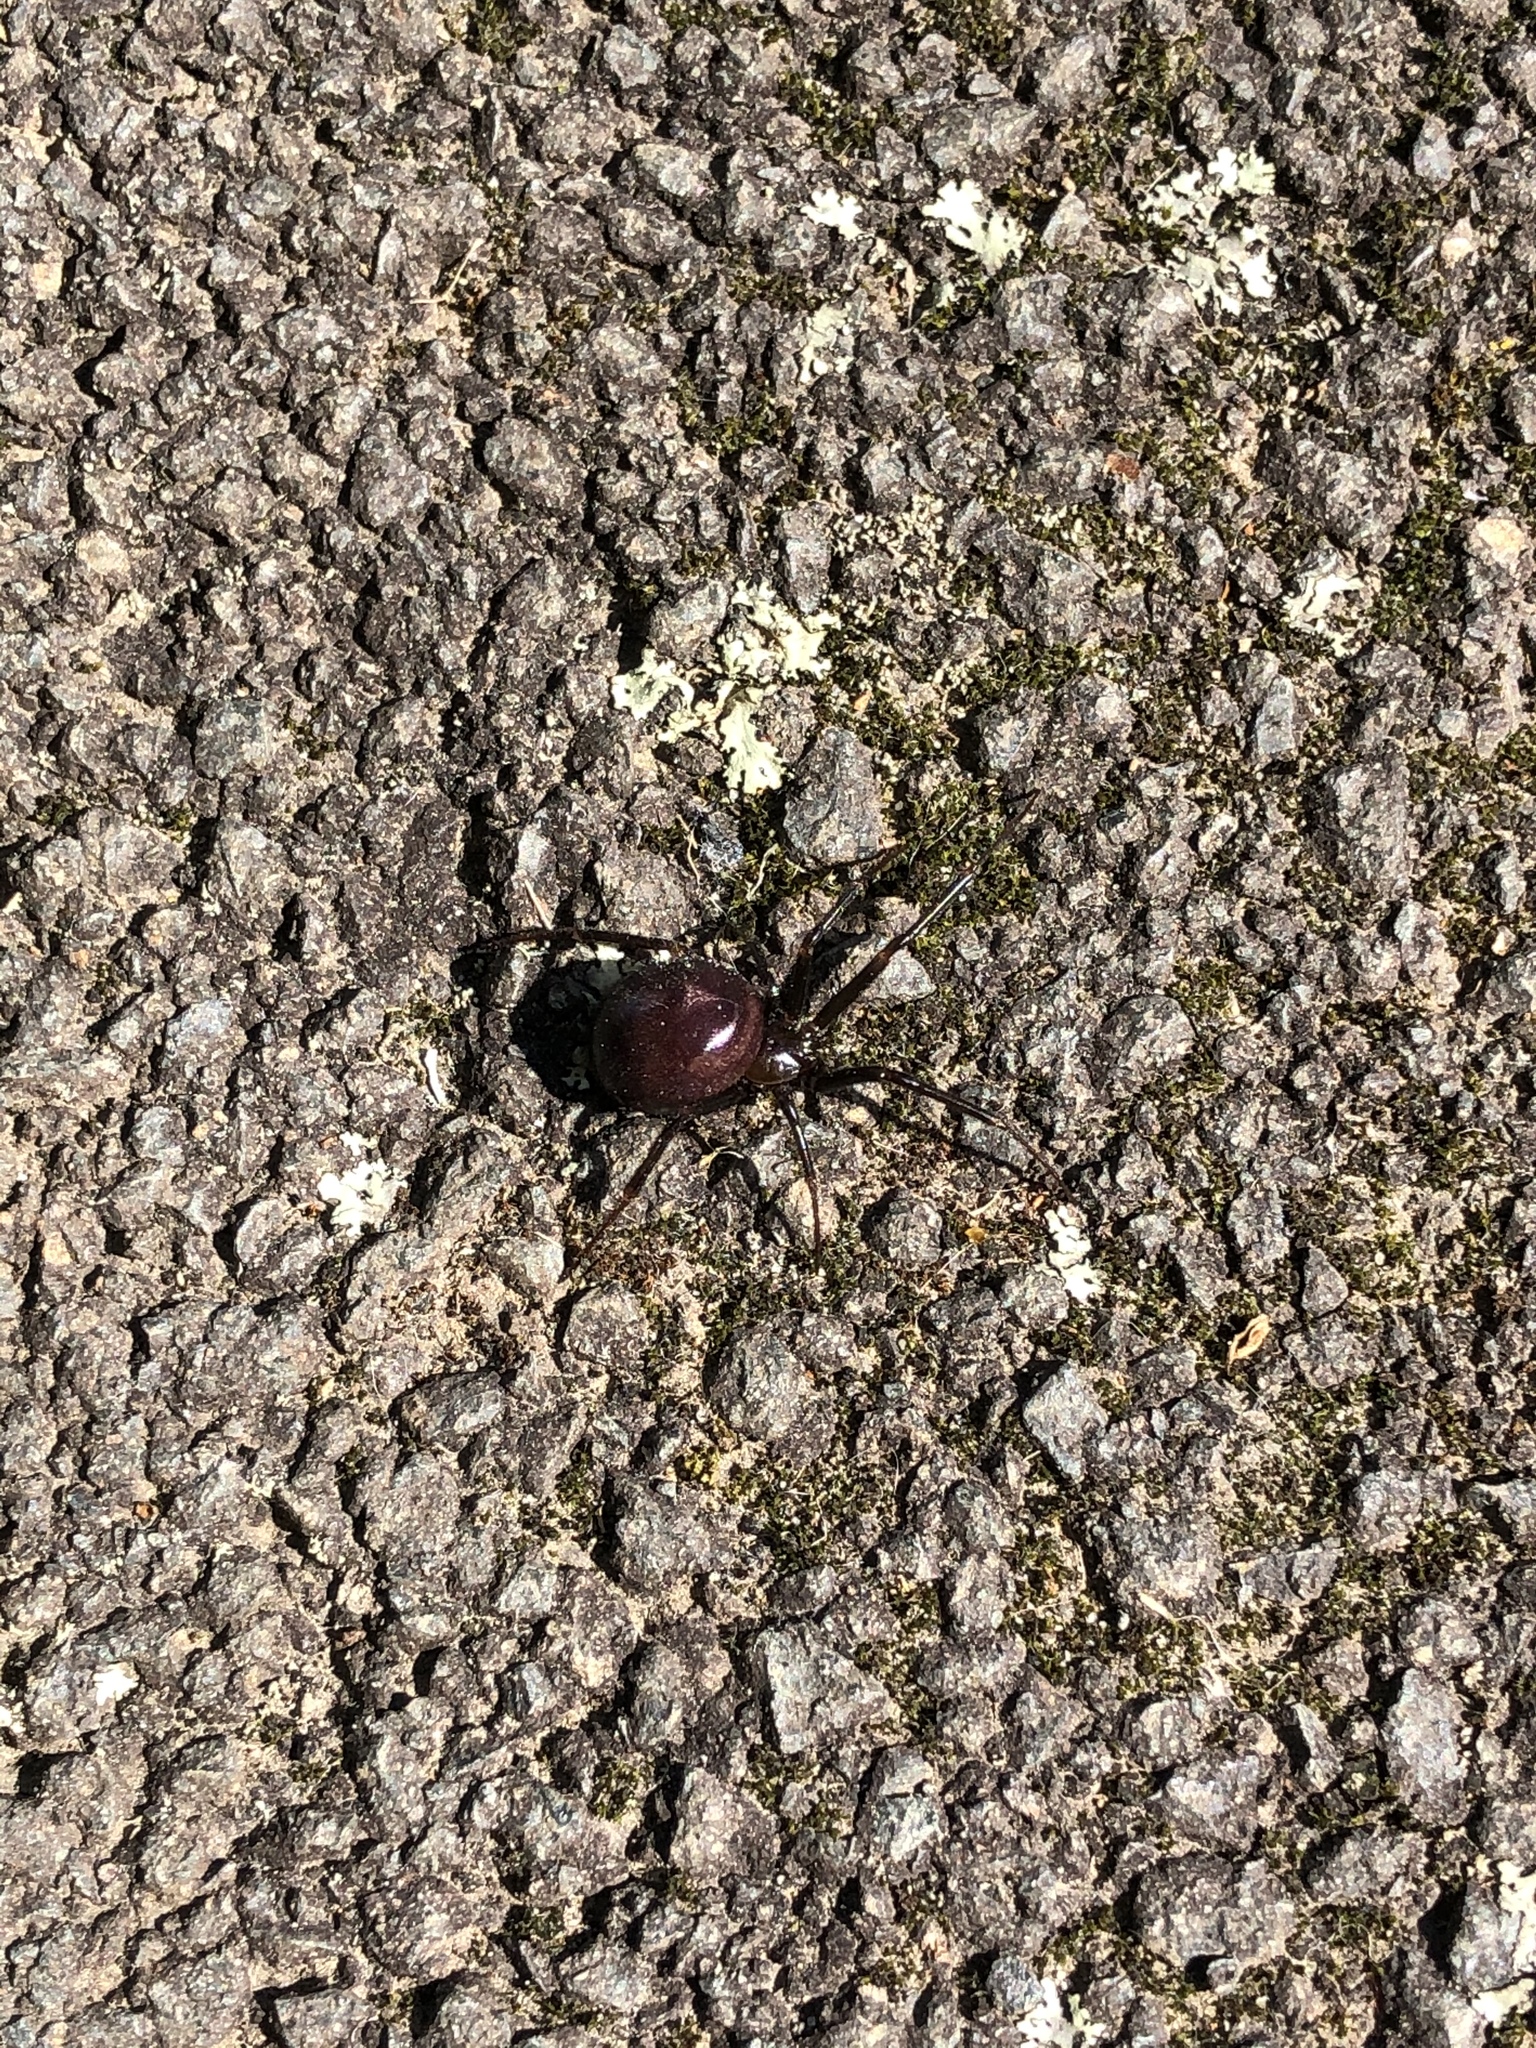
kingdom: Animalia
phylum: Arthropoda
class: Arachnida
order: Araneae
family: Theridiidae
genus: Steatoda
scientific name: Steatoda capensis
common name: Cobweb weaver
